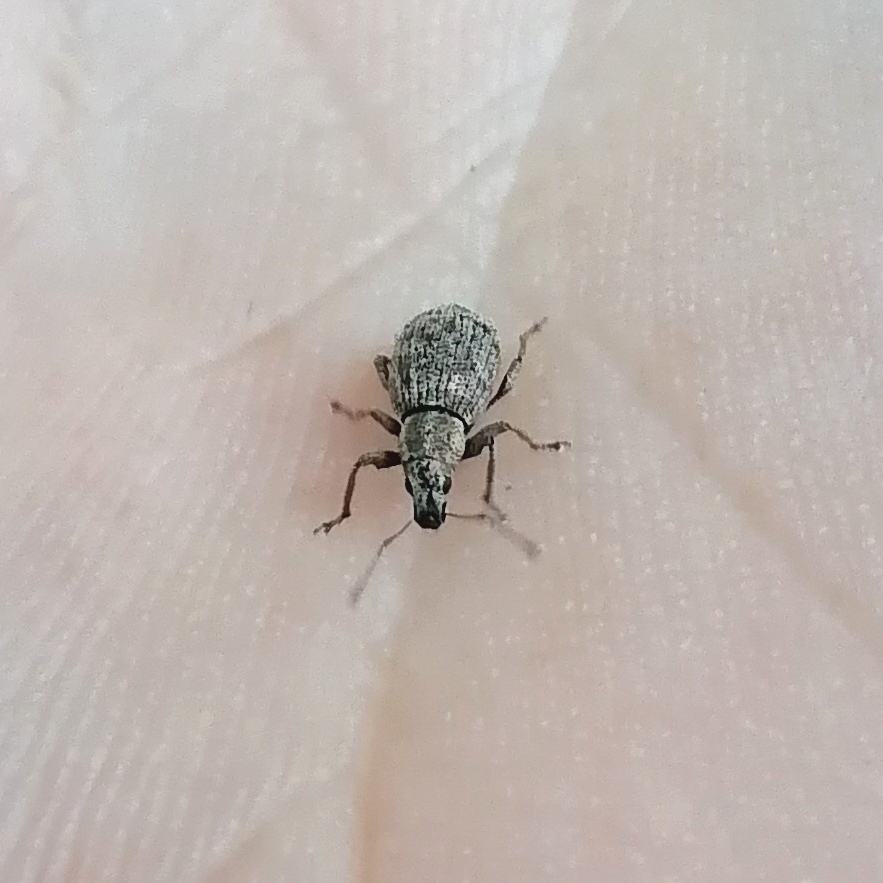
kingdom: Animalia
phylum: Arthropoda
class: Insecta
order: Coleoptera
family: Curculionidae
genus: Sciaphilus
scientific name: Sciaphilus asperatus
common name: Weevil
